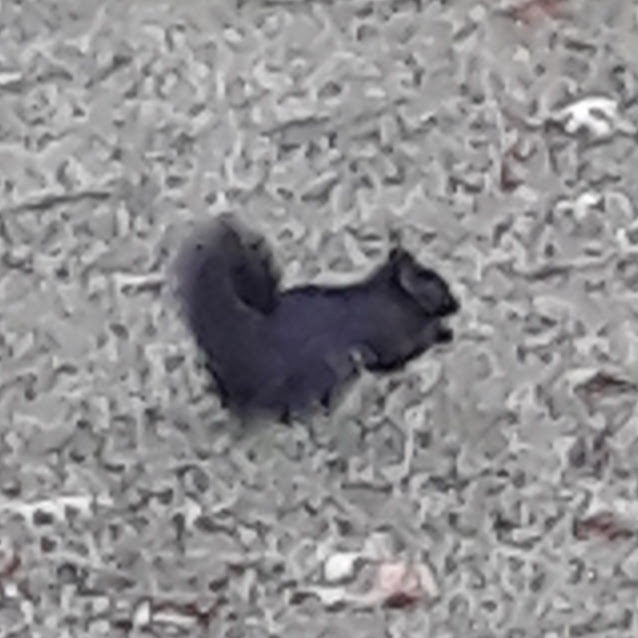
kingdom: Animalia
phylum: Chordata
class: Mammalia
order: Rodentia
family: Sciuridae
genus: Sciurus
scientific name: Sciurus carolinensis
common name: Eastern gray squirrel
